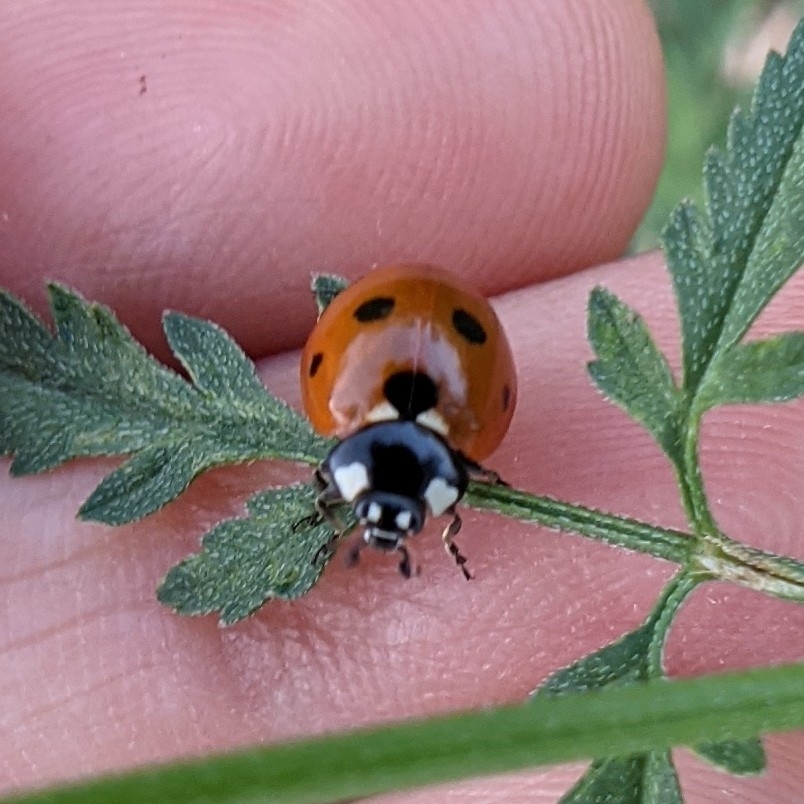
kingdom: Animalia
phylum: Arthropoda
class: Insecta
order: Coleoptera
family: Coccinellidae
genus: Coccinella
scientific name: Coccinella septempunctata
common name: Sevenspotted lady beetle
